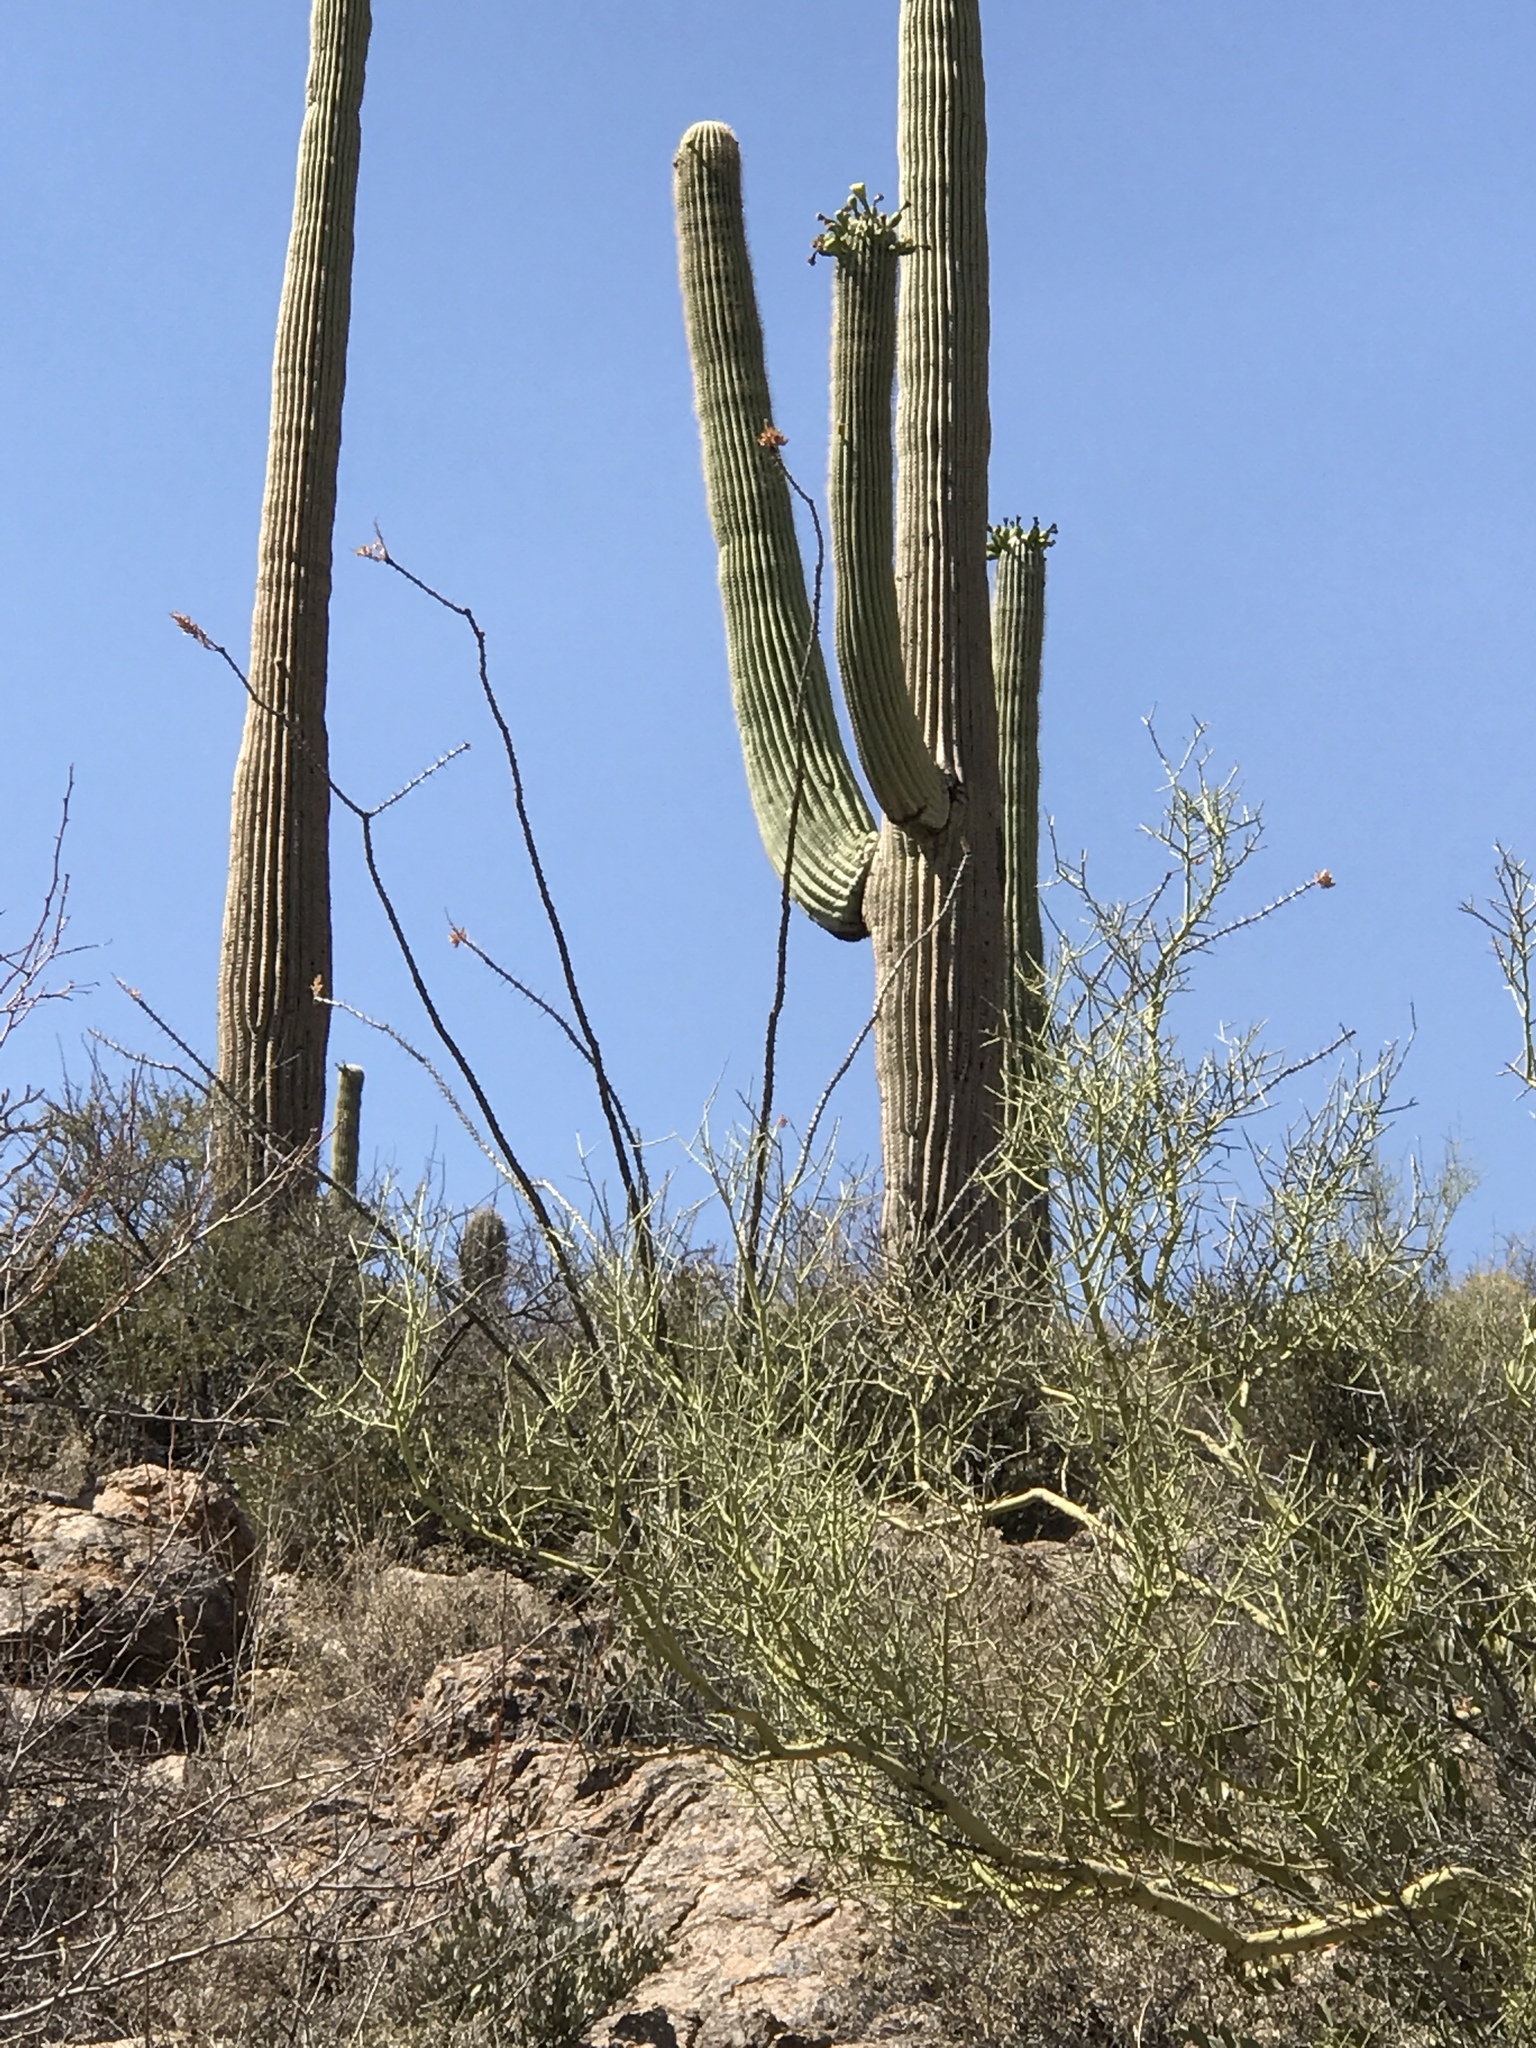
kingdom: Plantae
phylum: Tracheophyta
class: Magnoliopsida
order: Ericales
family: Fouquieriaceae
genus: Fouquieria
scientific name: Fouquieria splendens
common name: Vine-cactus
